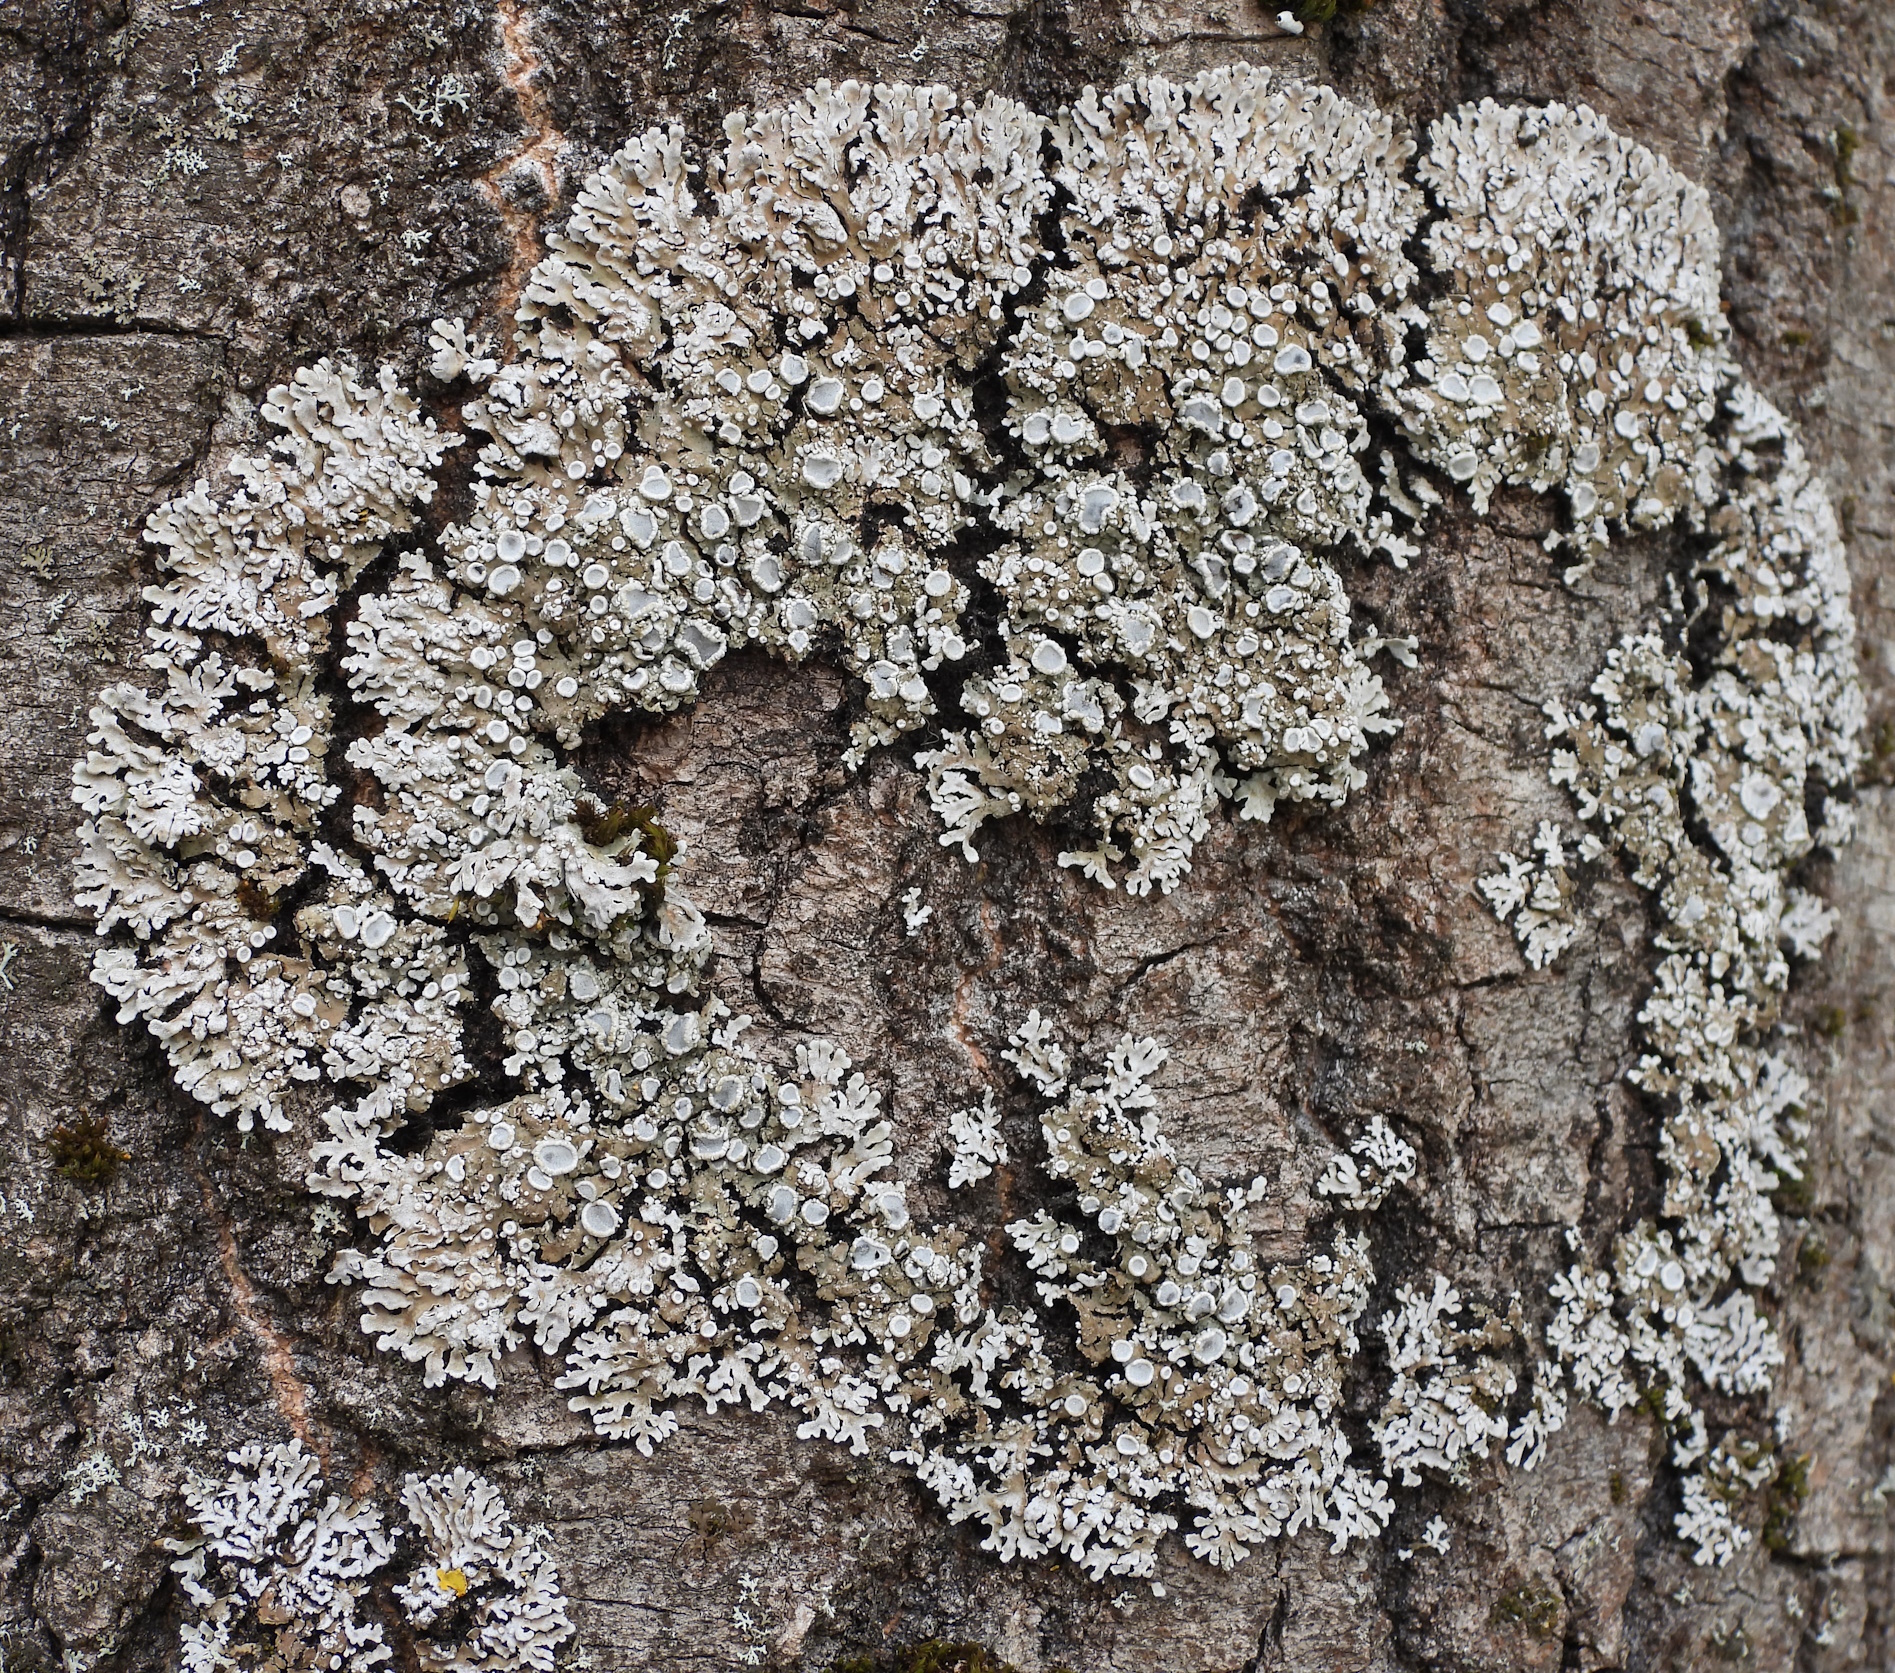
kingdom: Fungi
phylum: Ascomycota
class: Lecanoromycetes
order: Caliciales
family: Physciaceae
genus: Physconia
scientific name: Physconia distorta
